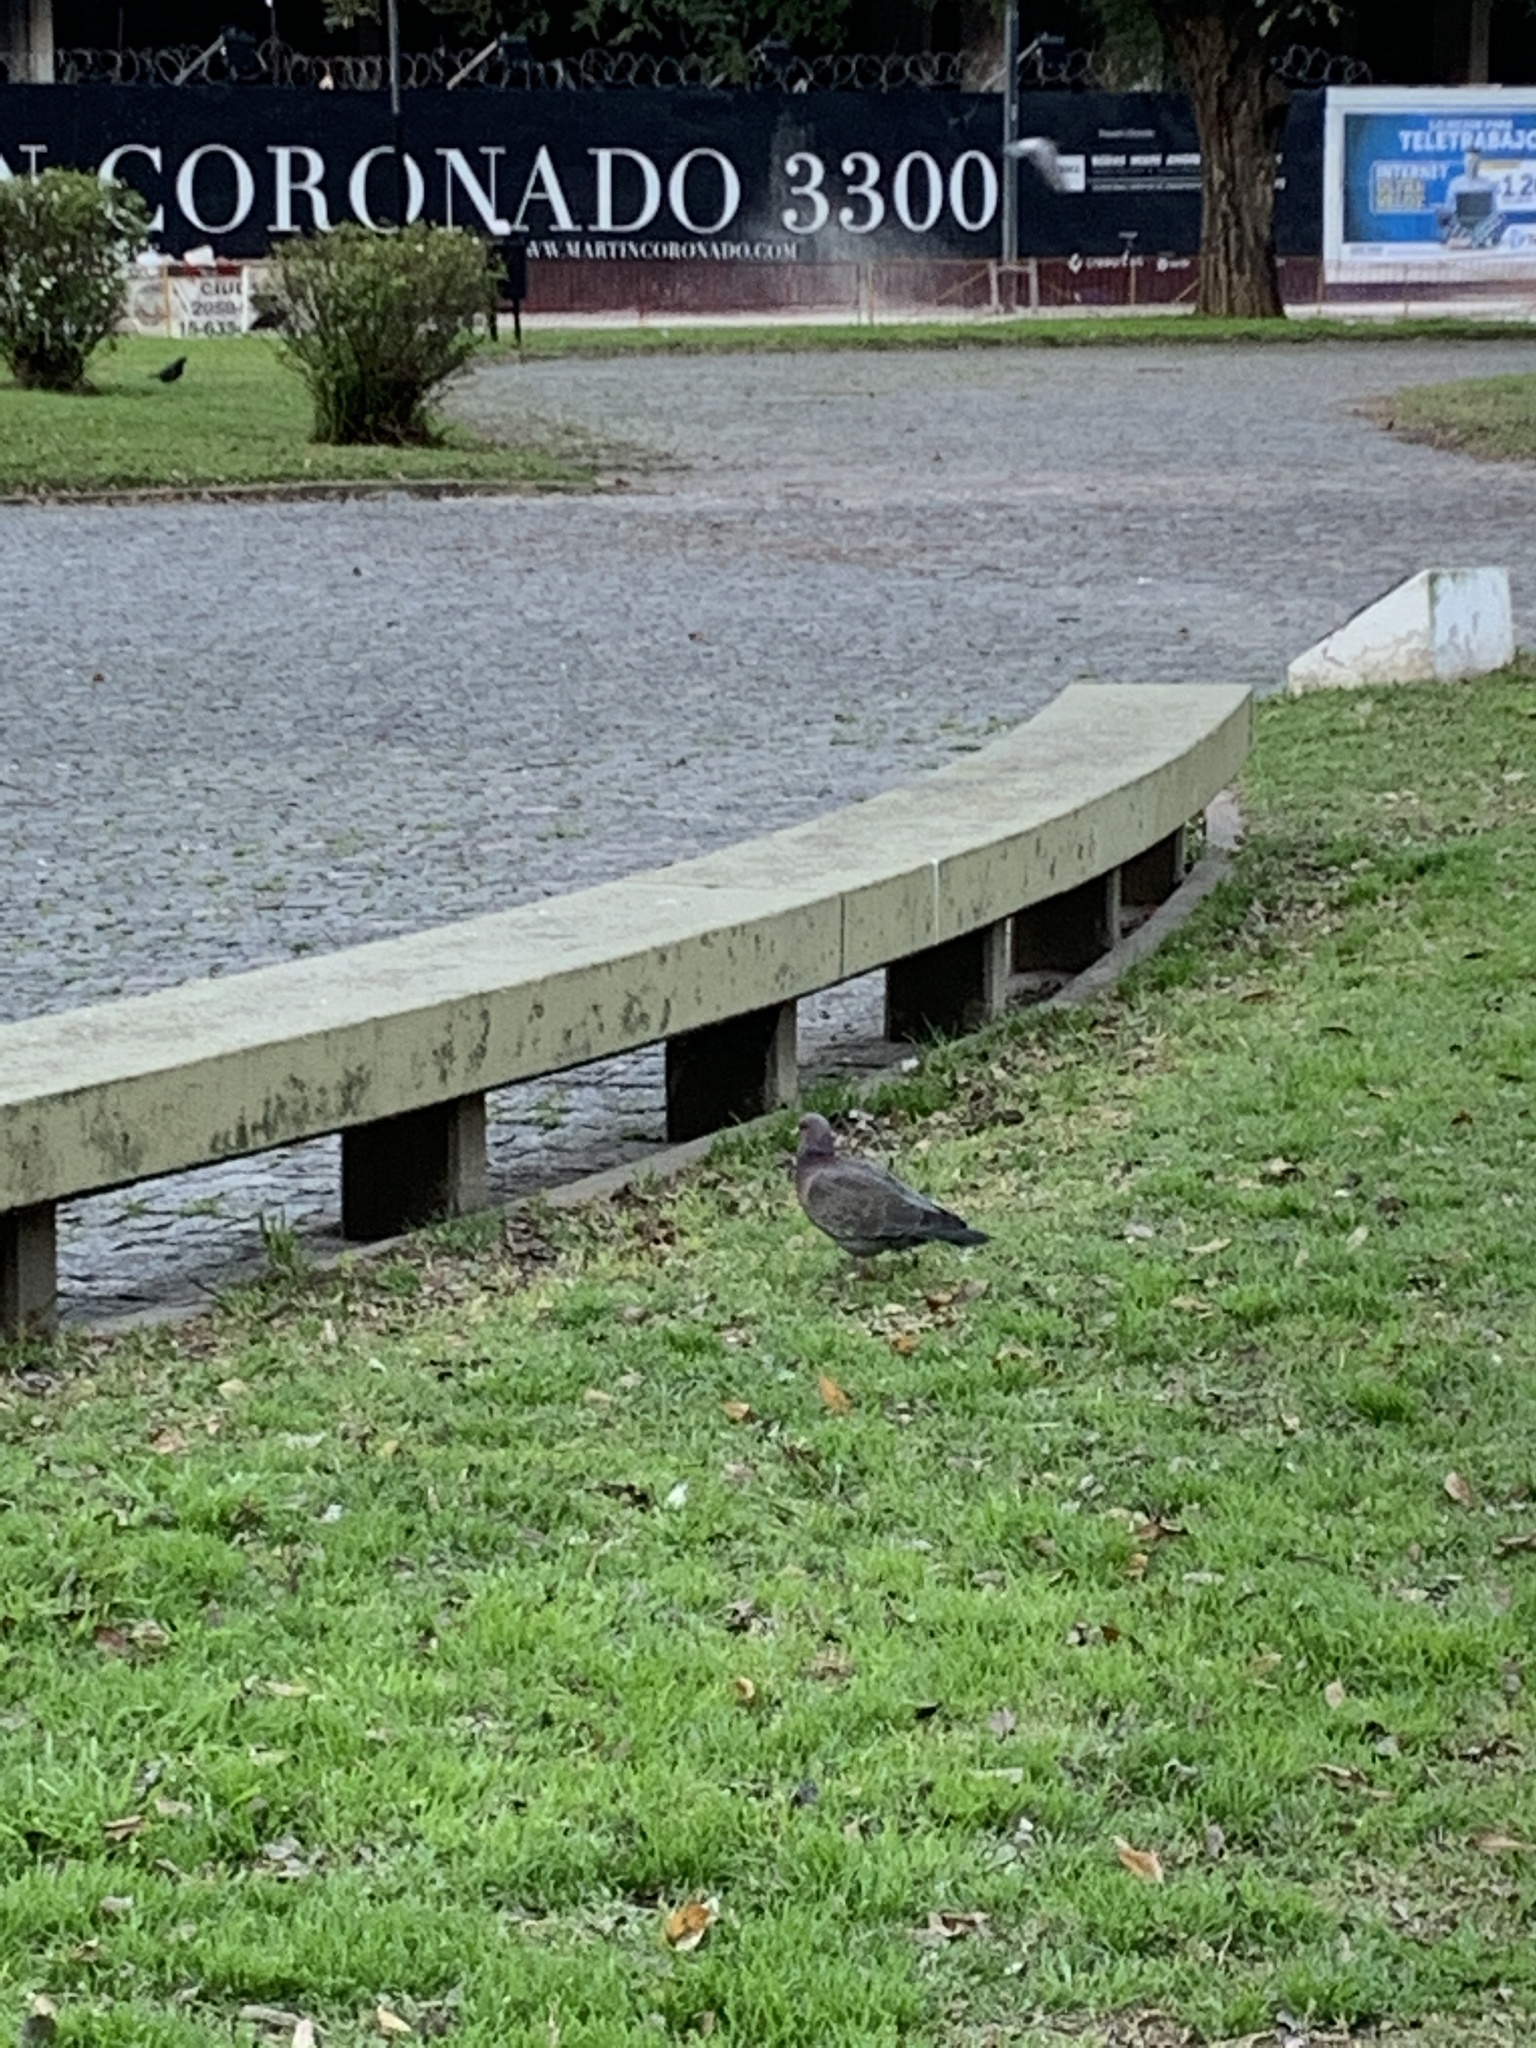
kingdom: Animalia
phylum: Chordata
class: Aves
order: Columbiformes
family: Columbidae
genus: Patagioenas
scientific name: Patagioenas picazuro
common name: Picazuro pigeon
